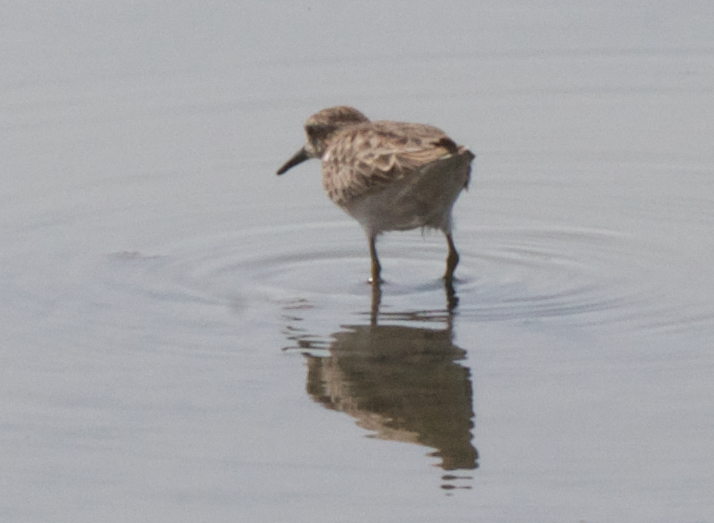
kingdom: Animalia
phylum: Chordata
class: Aves
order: Charadriiformes
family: Scolopacidae
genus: Calidris
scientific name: Calidris minutilla
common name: Least sandpiper
